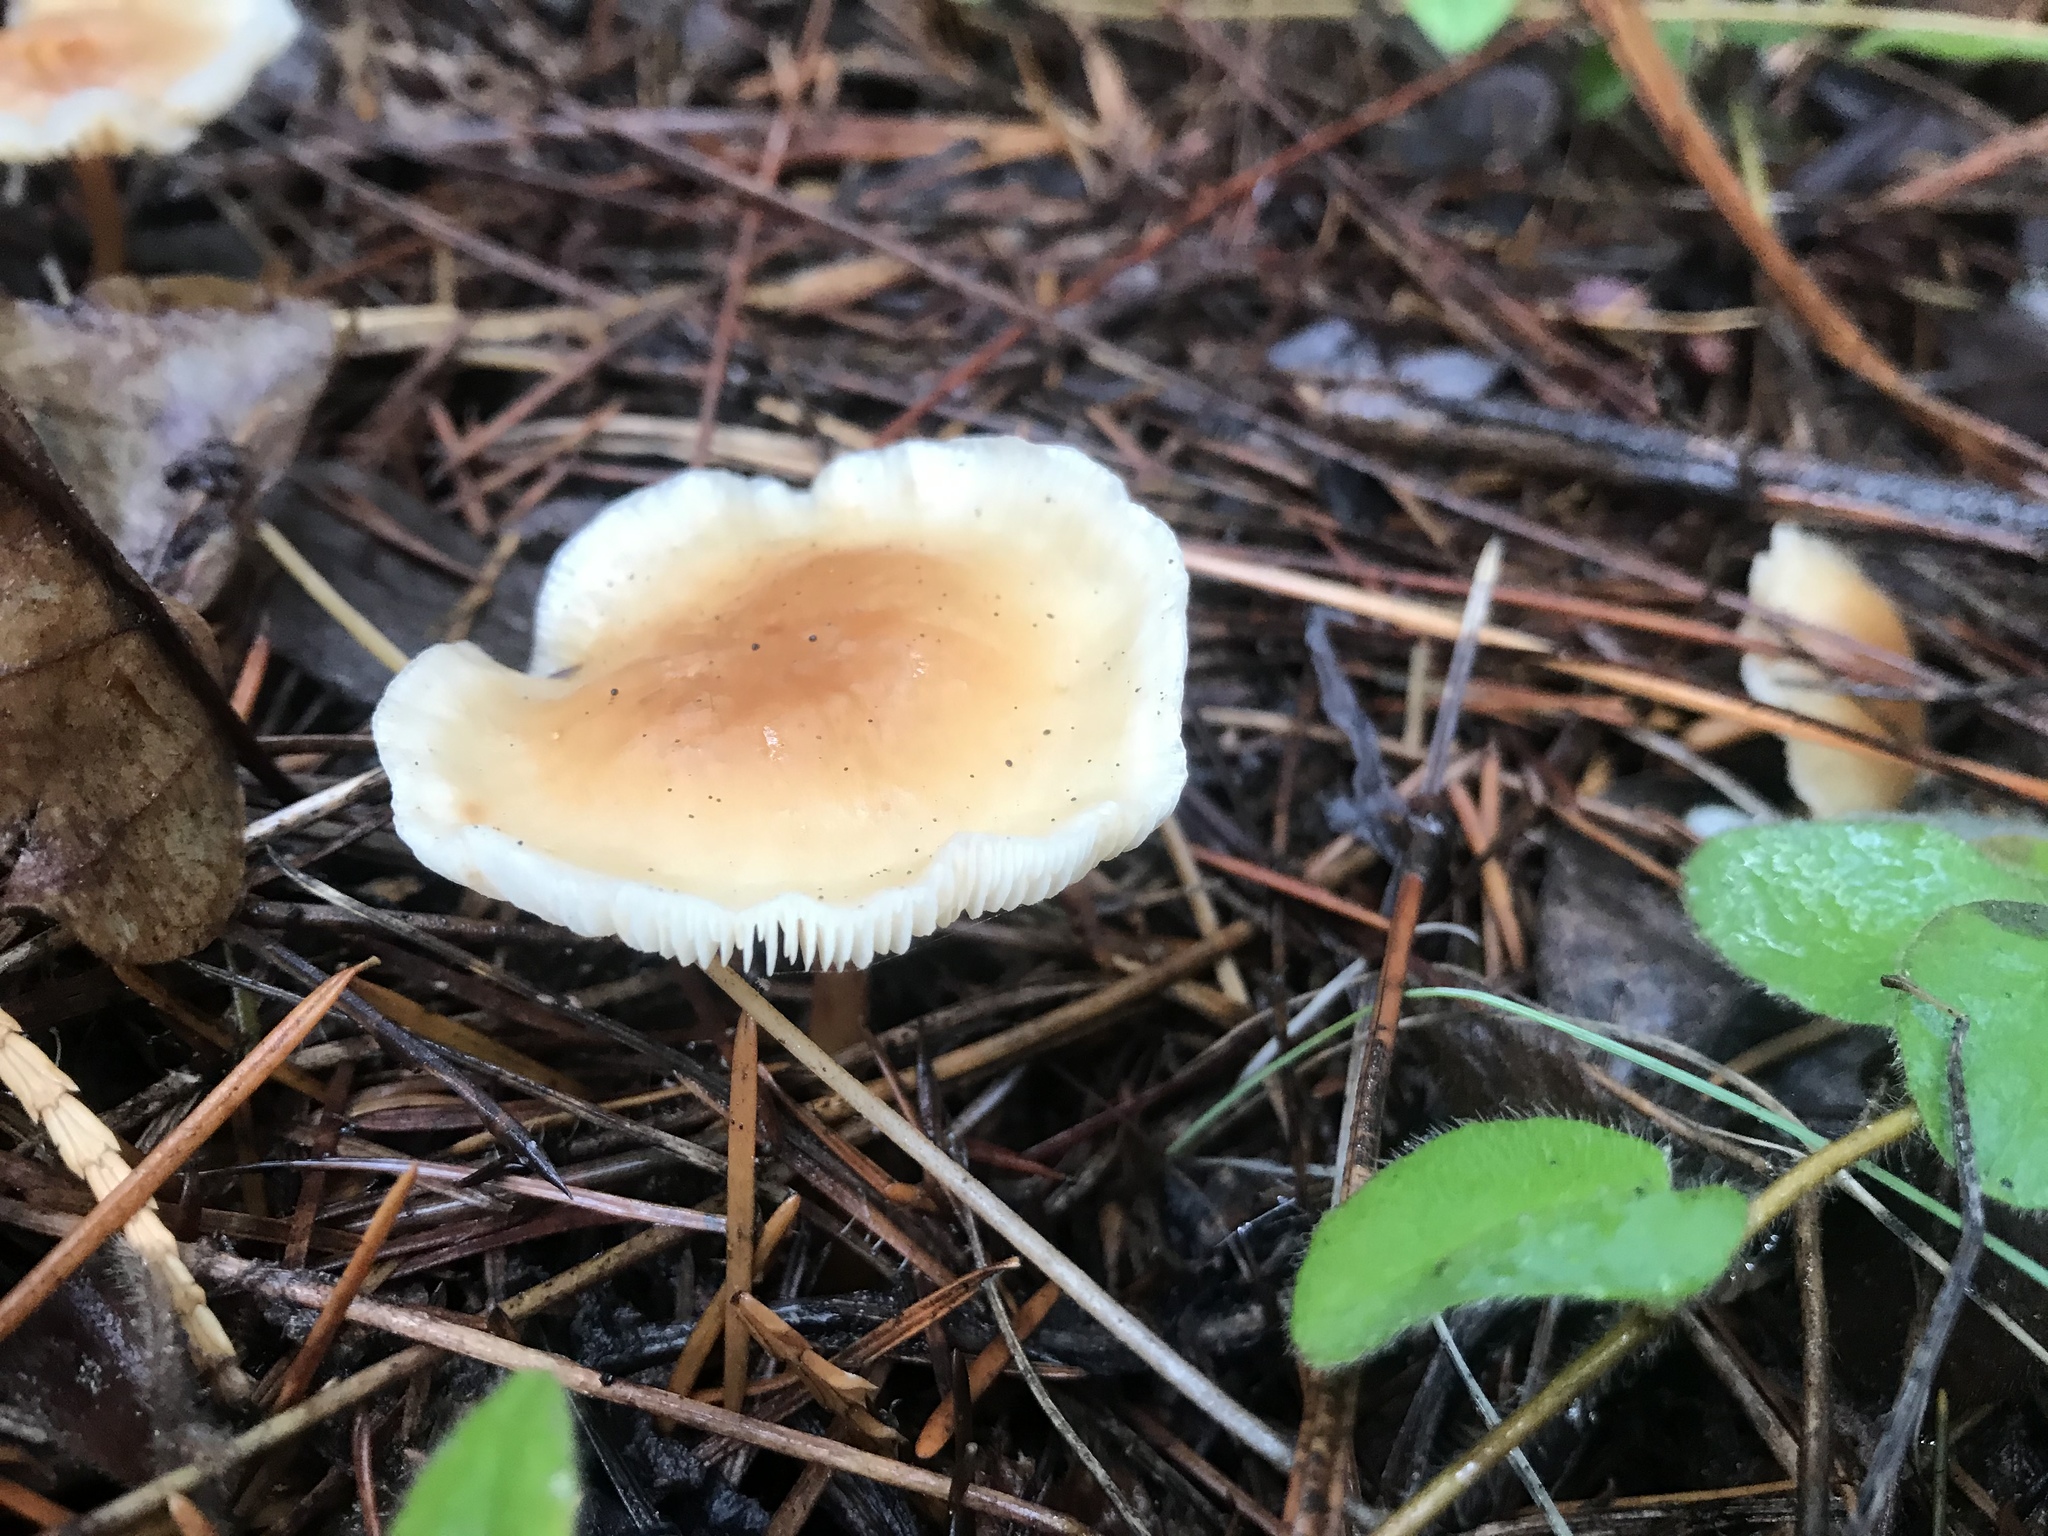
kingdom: Fungi
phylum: Basidiomycota
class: Agaricomycetes
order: Agaricales
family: Omphalotaceae
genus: Gymnopus
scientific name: Gymnopus dryophilus
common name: Penny top
